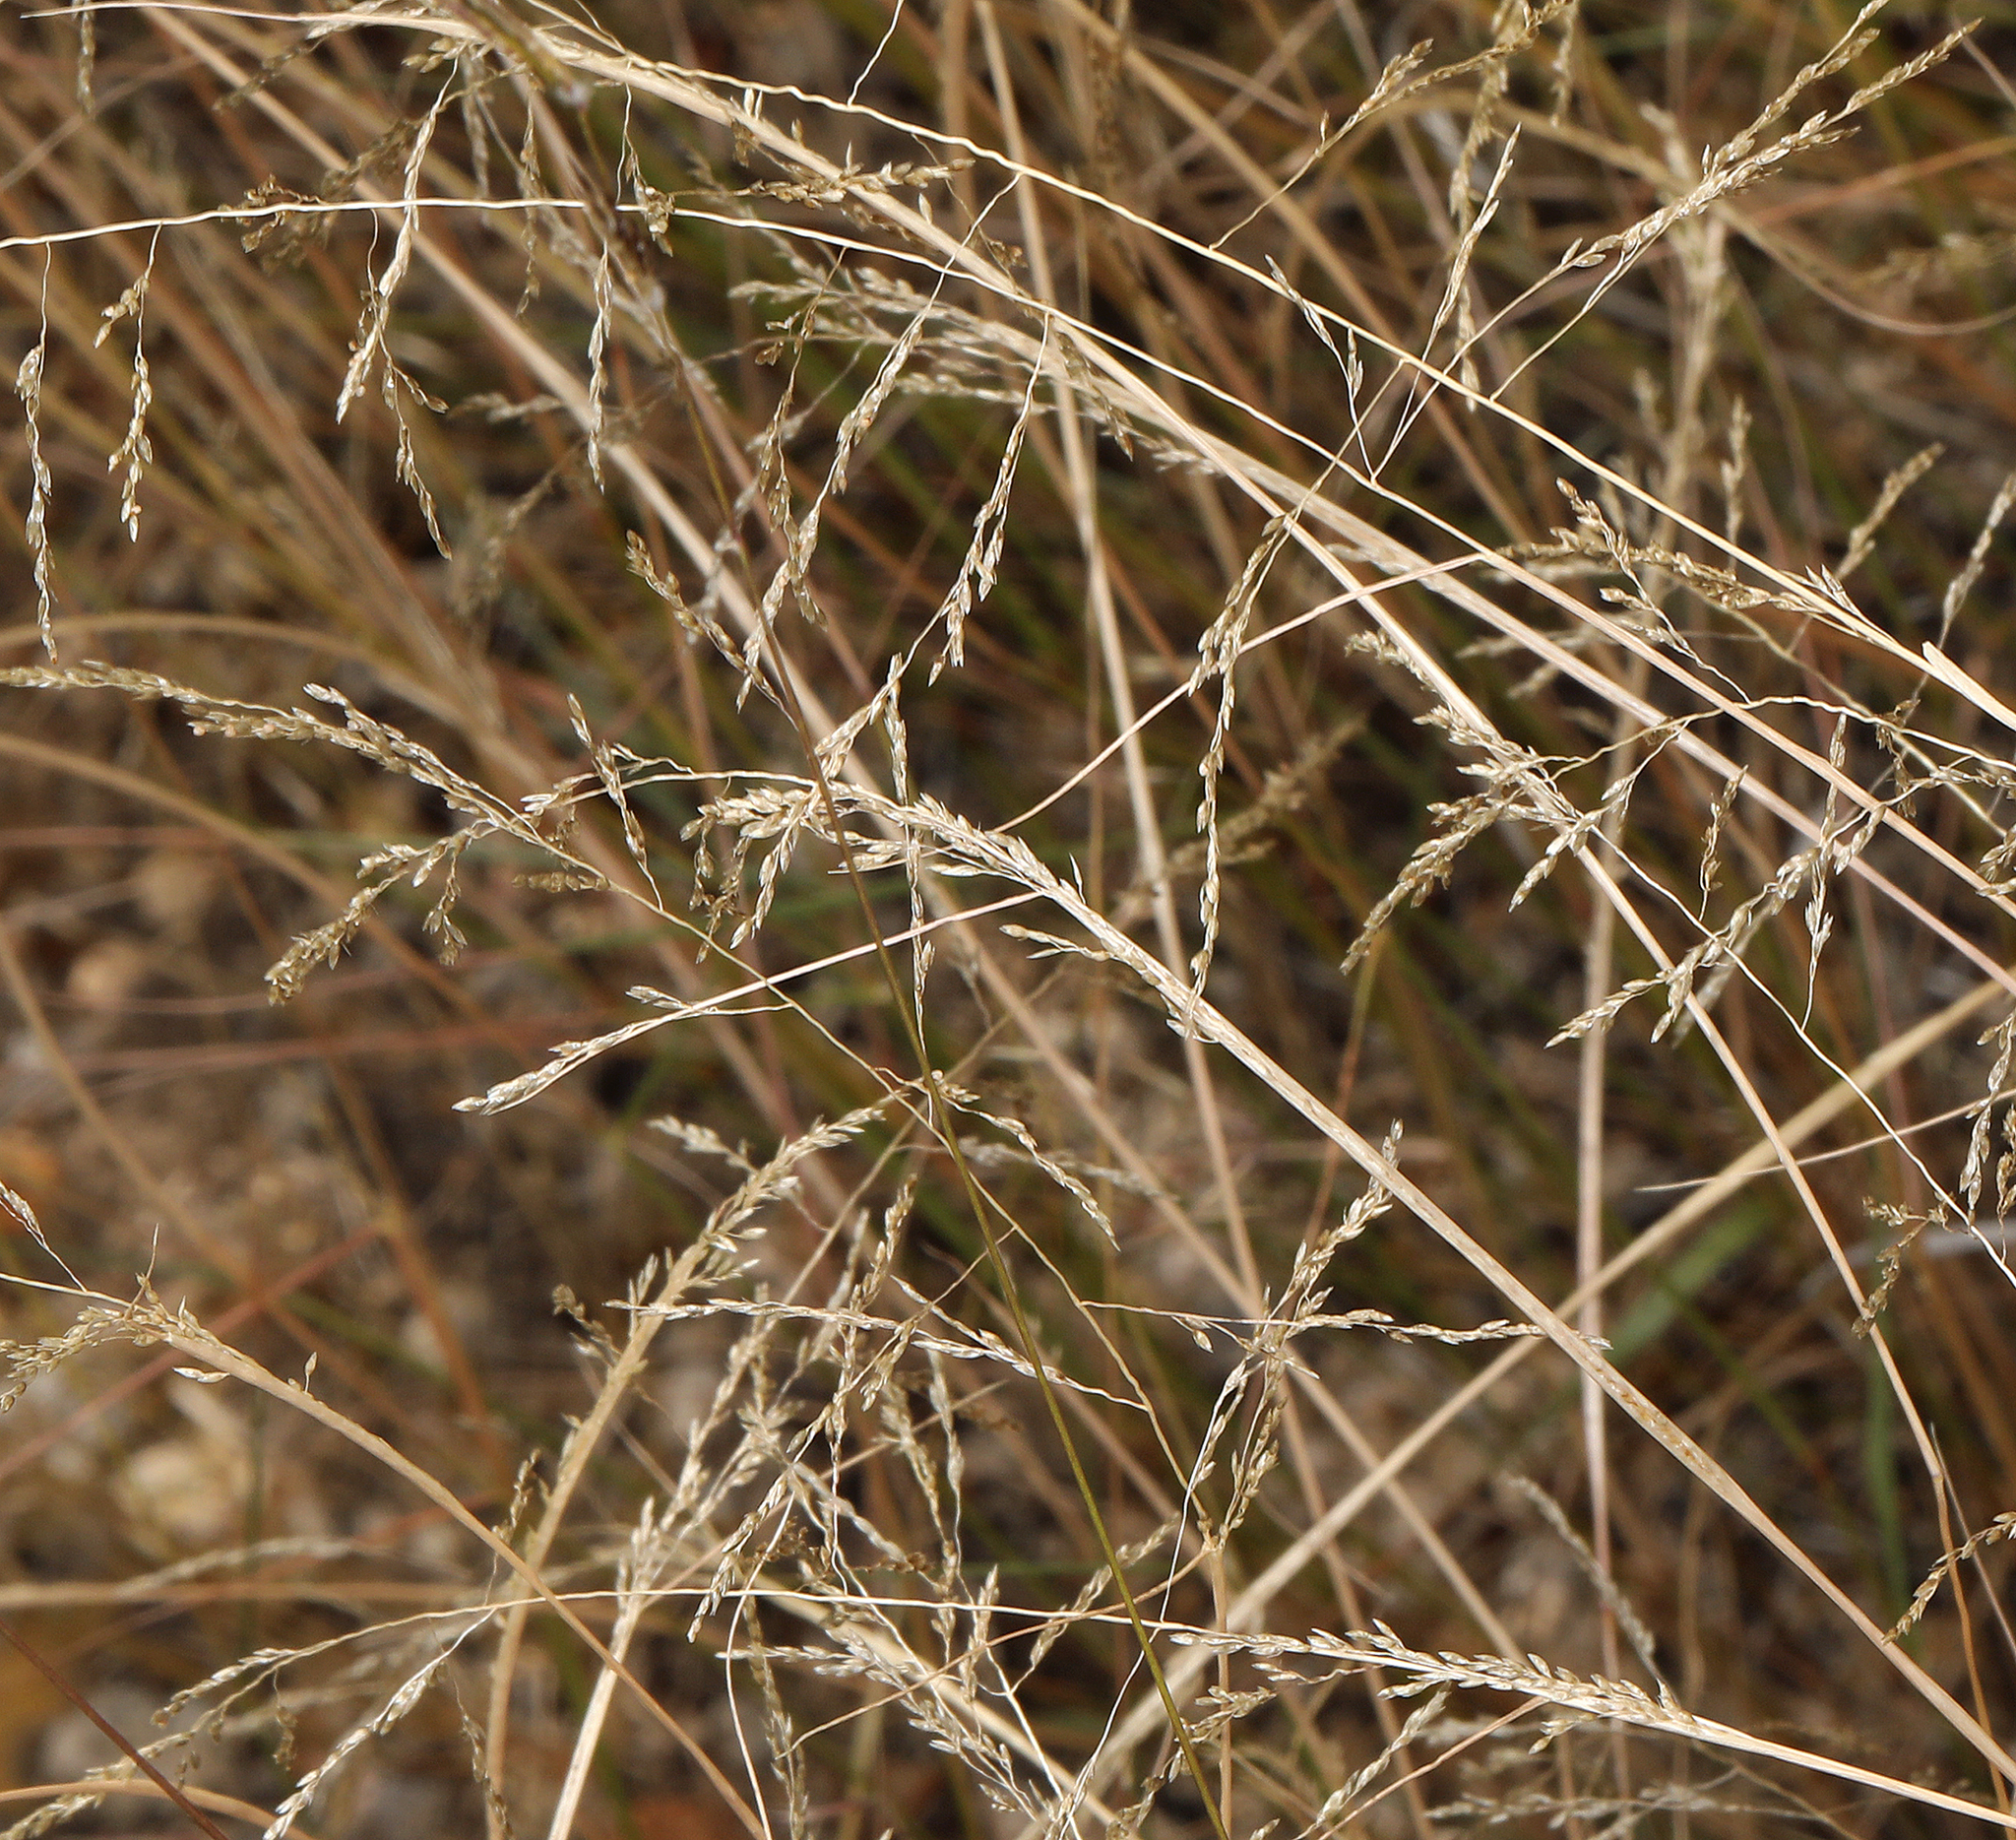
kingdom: Plantae
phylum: Tracheophyta
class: Liliopsida
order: Poales
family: Poaceae
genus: Sporobolus
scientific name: Sporobolus cryptandrus
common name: Sand dropseed
